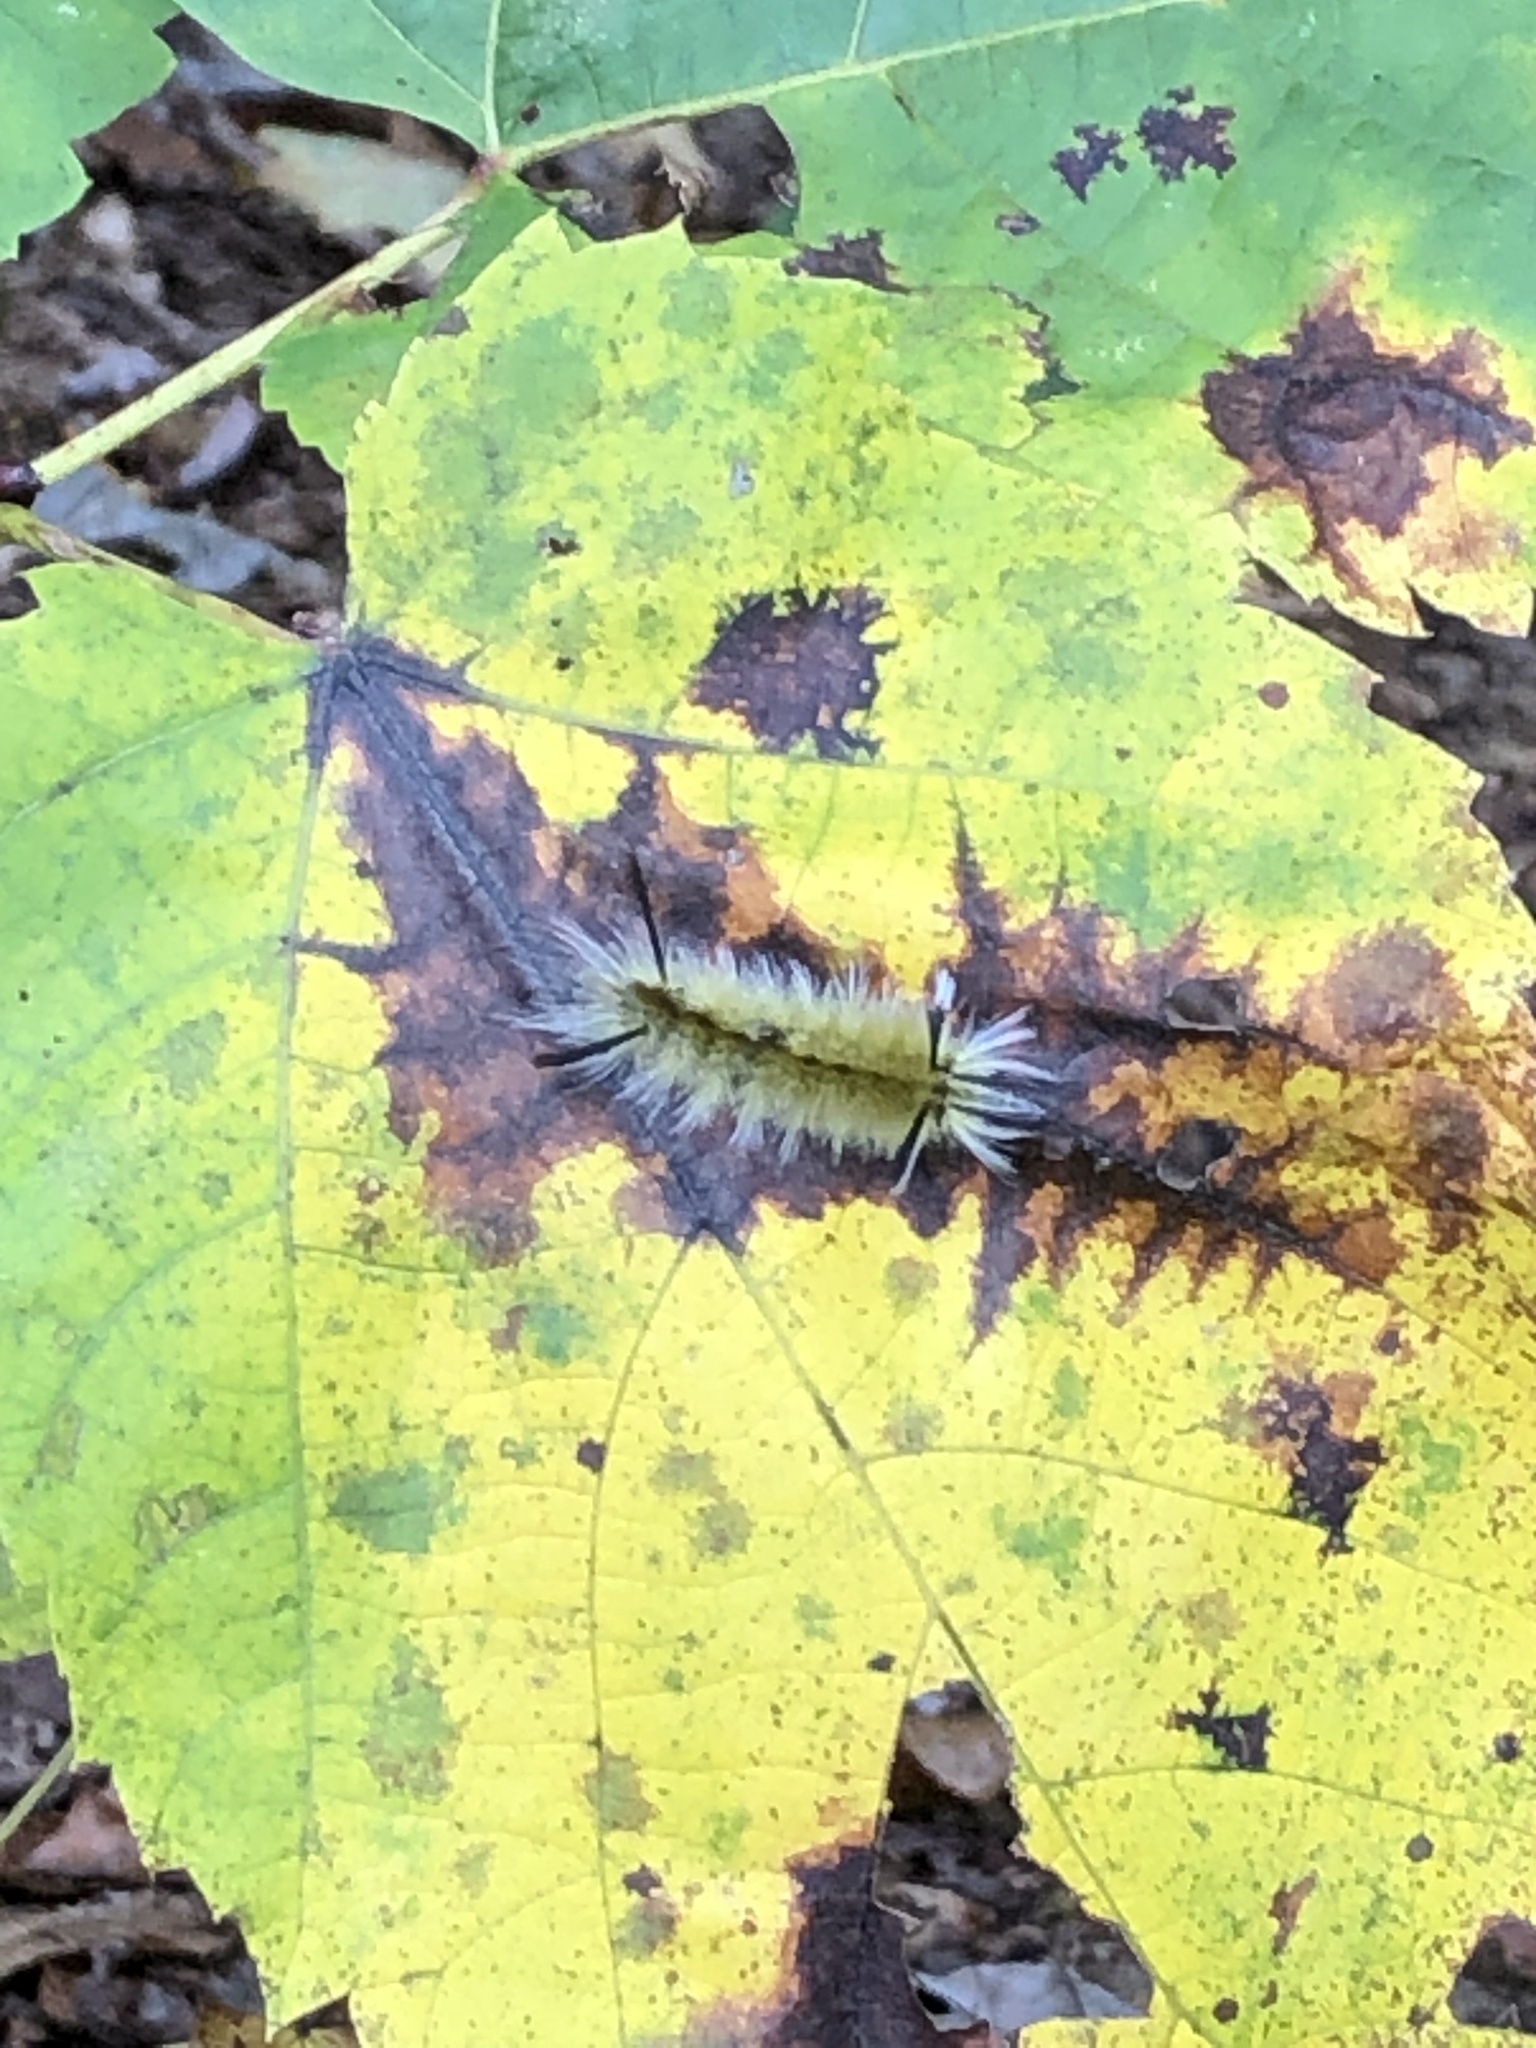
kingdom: Animalia
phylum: Arthropoda
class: Insecta
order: Lepidoptera
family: Erebidae
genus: Halysidota
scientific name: Halysidota tessellaris
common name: Banded tussock moth
